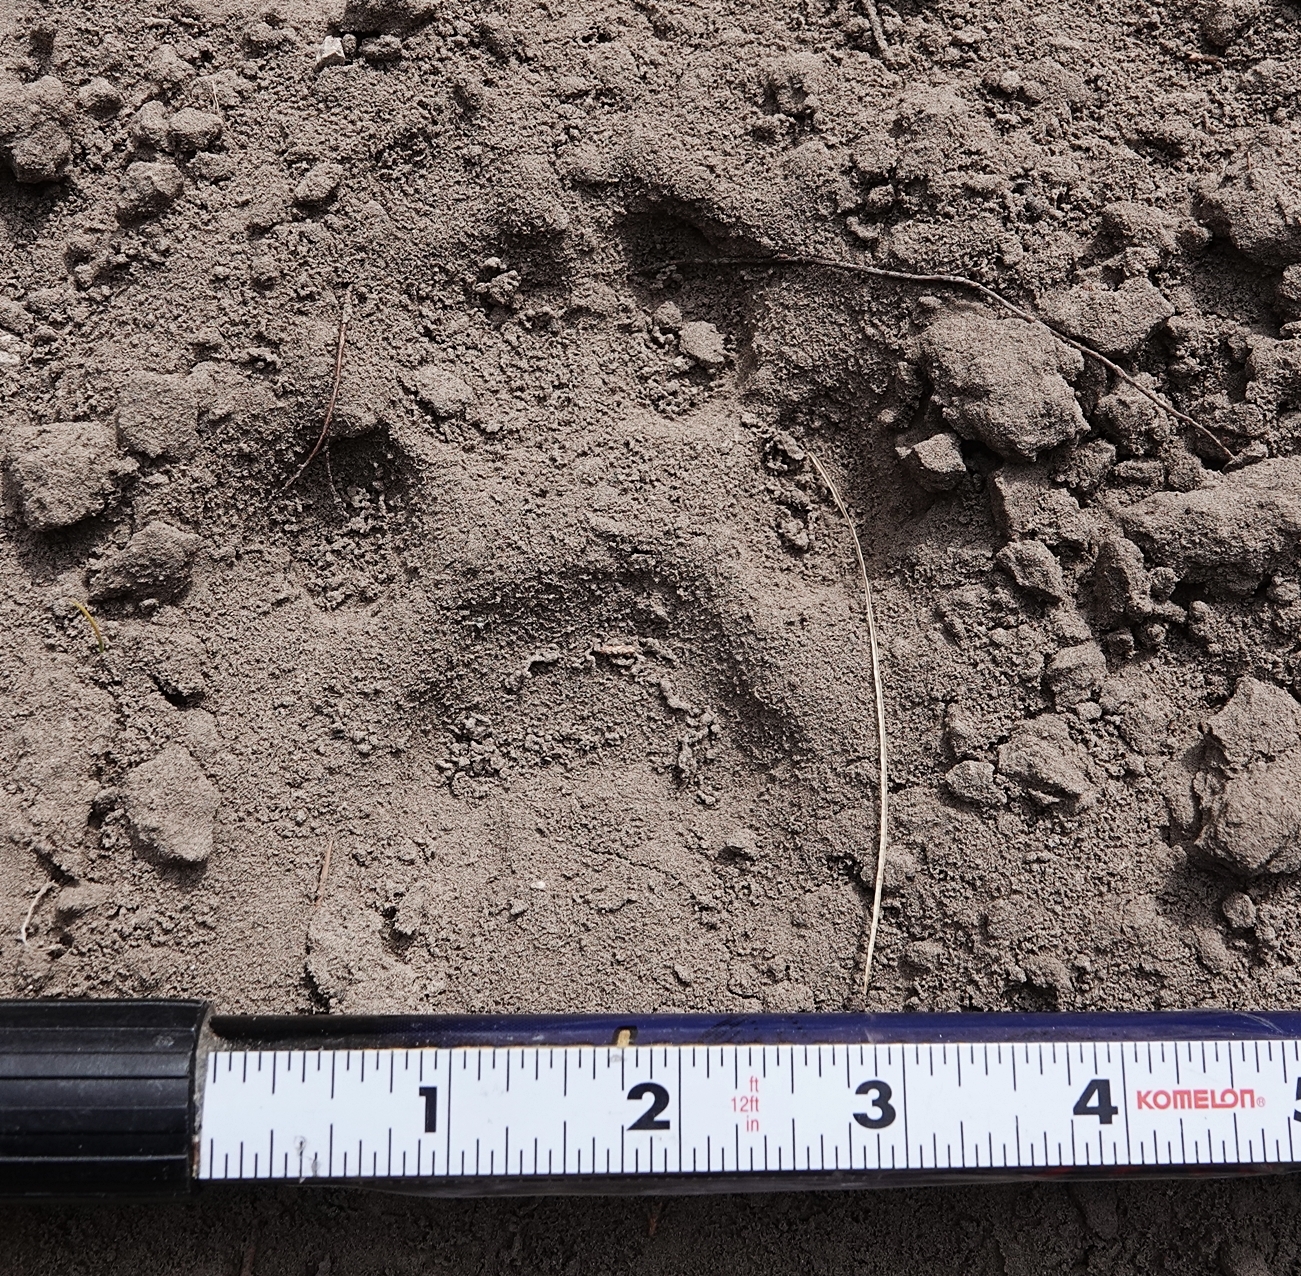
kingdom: Animalia
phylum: Chordata
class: Mammalia
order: Carnivora
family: Felidae
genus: Puma
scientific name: Puma concolor
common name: Puma
